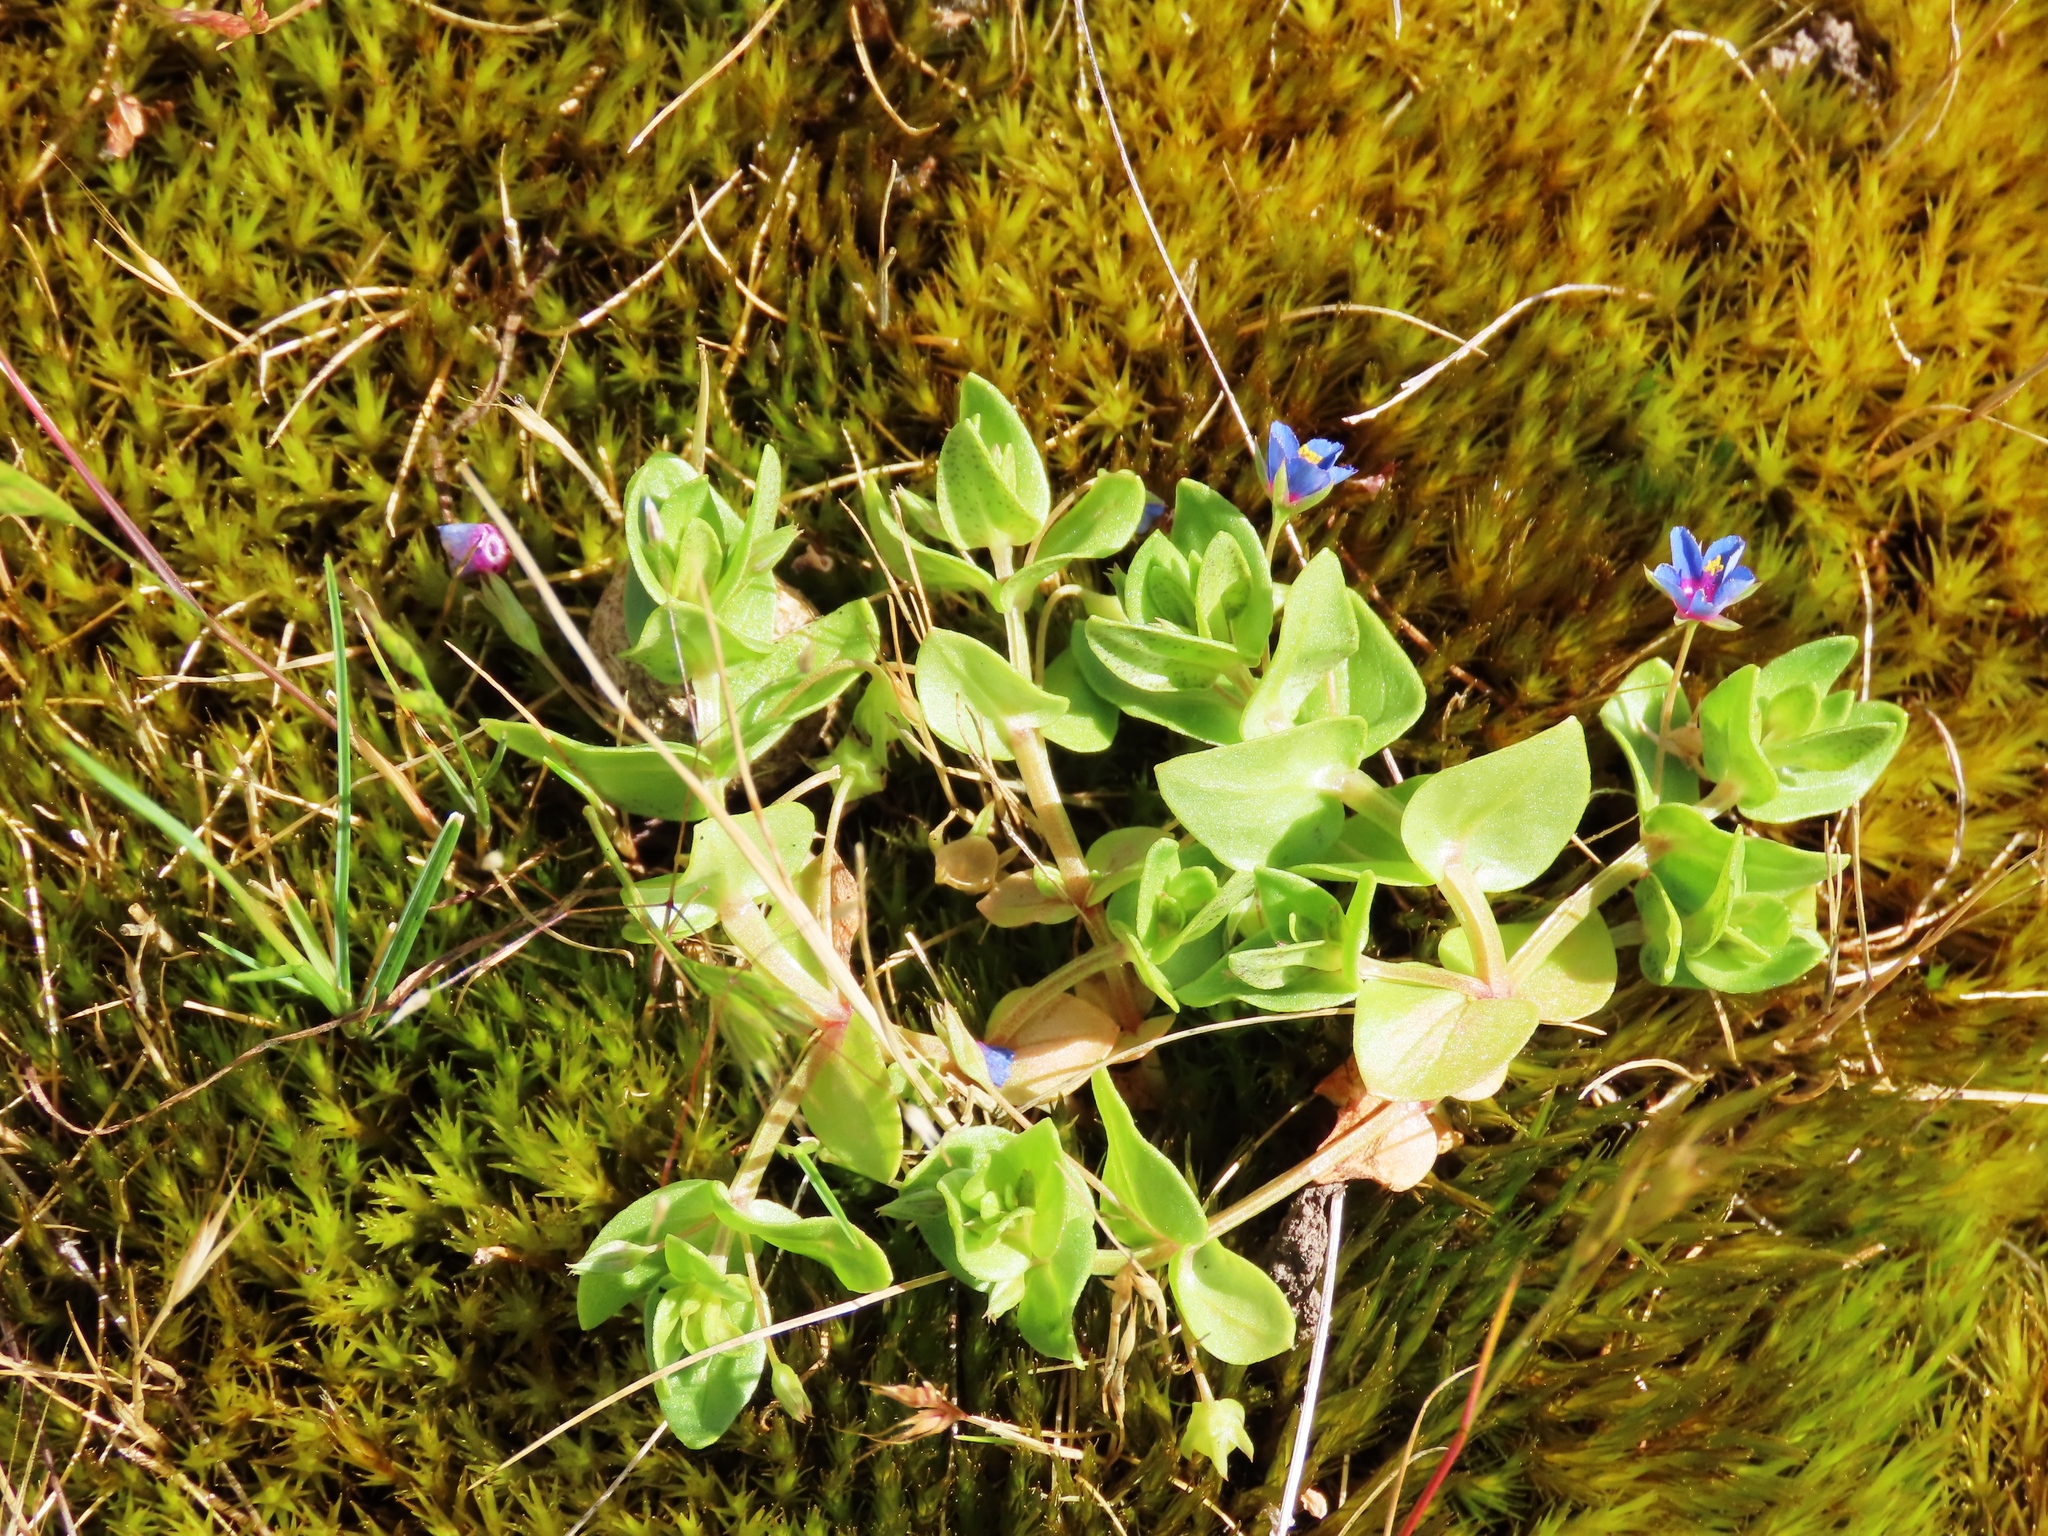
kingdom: Plantae
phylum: Tracheophyta
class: Magnoliopsida
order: Ericales
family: Primulaceae
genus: Lysimachia
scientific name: Lysimachia loeflingii
